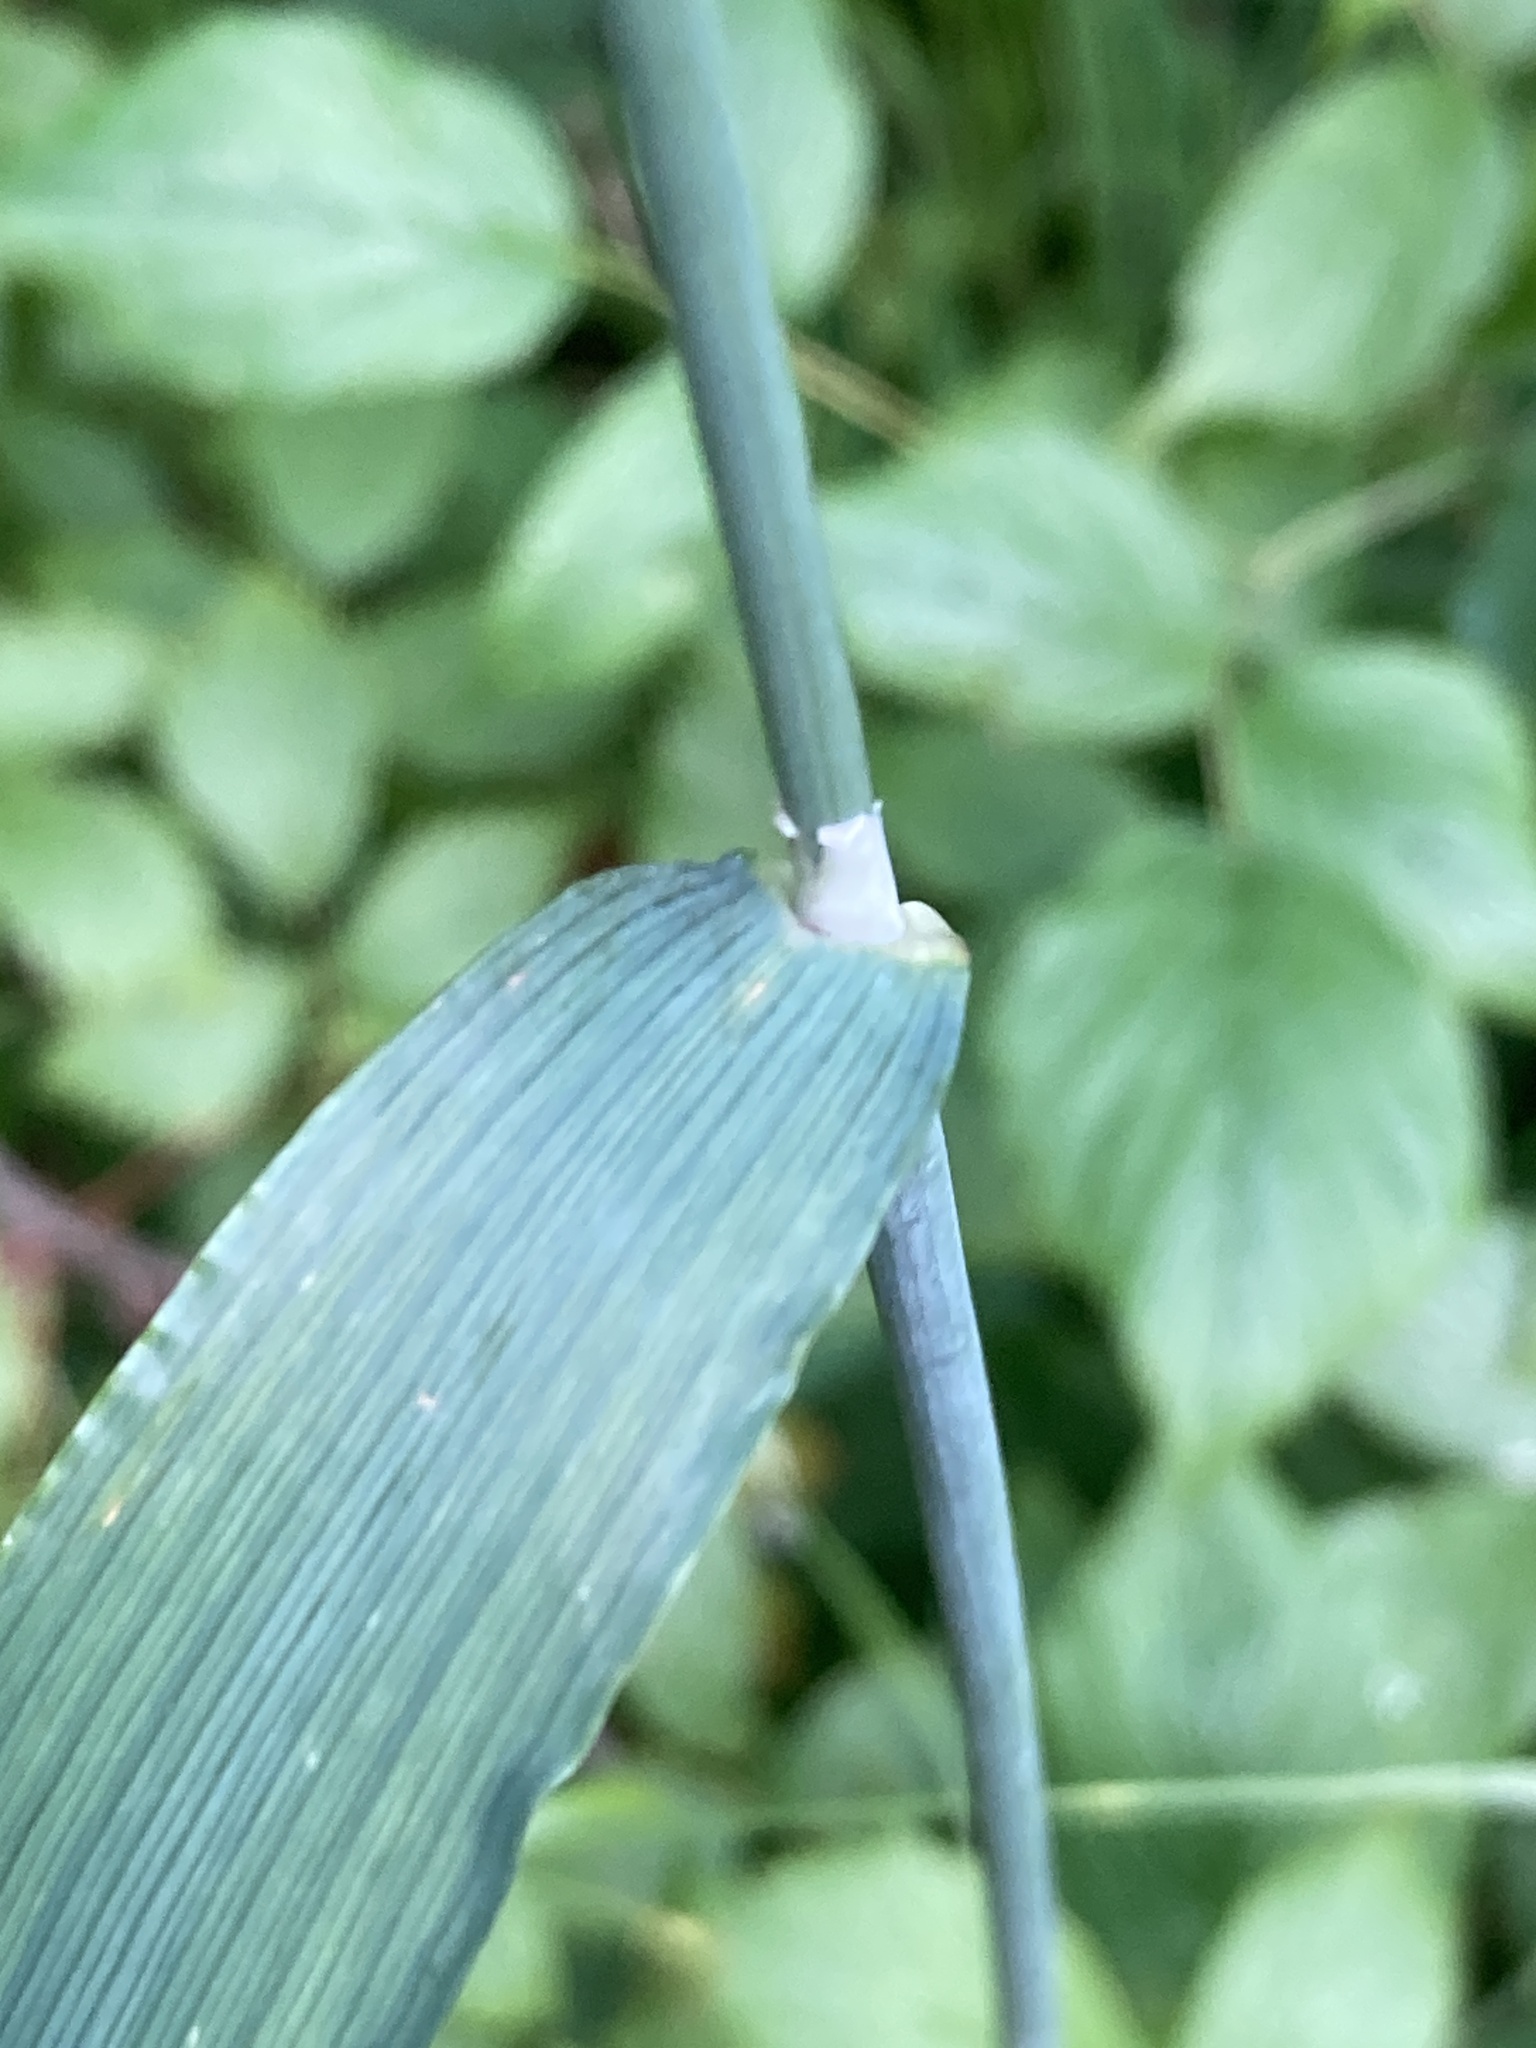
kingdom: Plantae
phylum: Tracheophyta
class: Liliopsida
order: Poales
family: Poaceae
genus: Milium
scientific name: Milium effusum
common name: Wood millet
